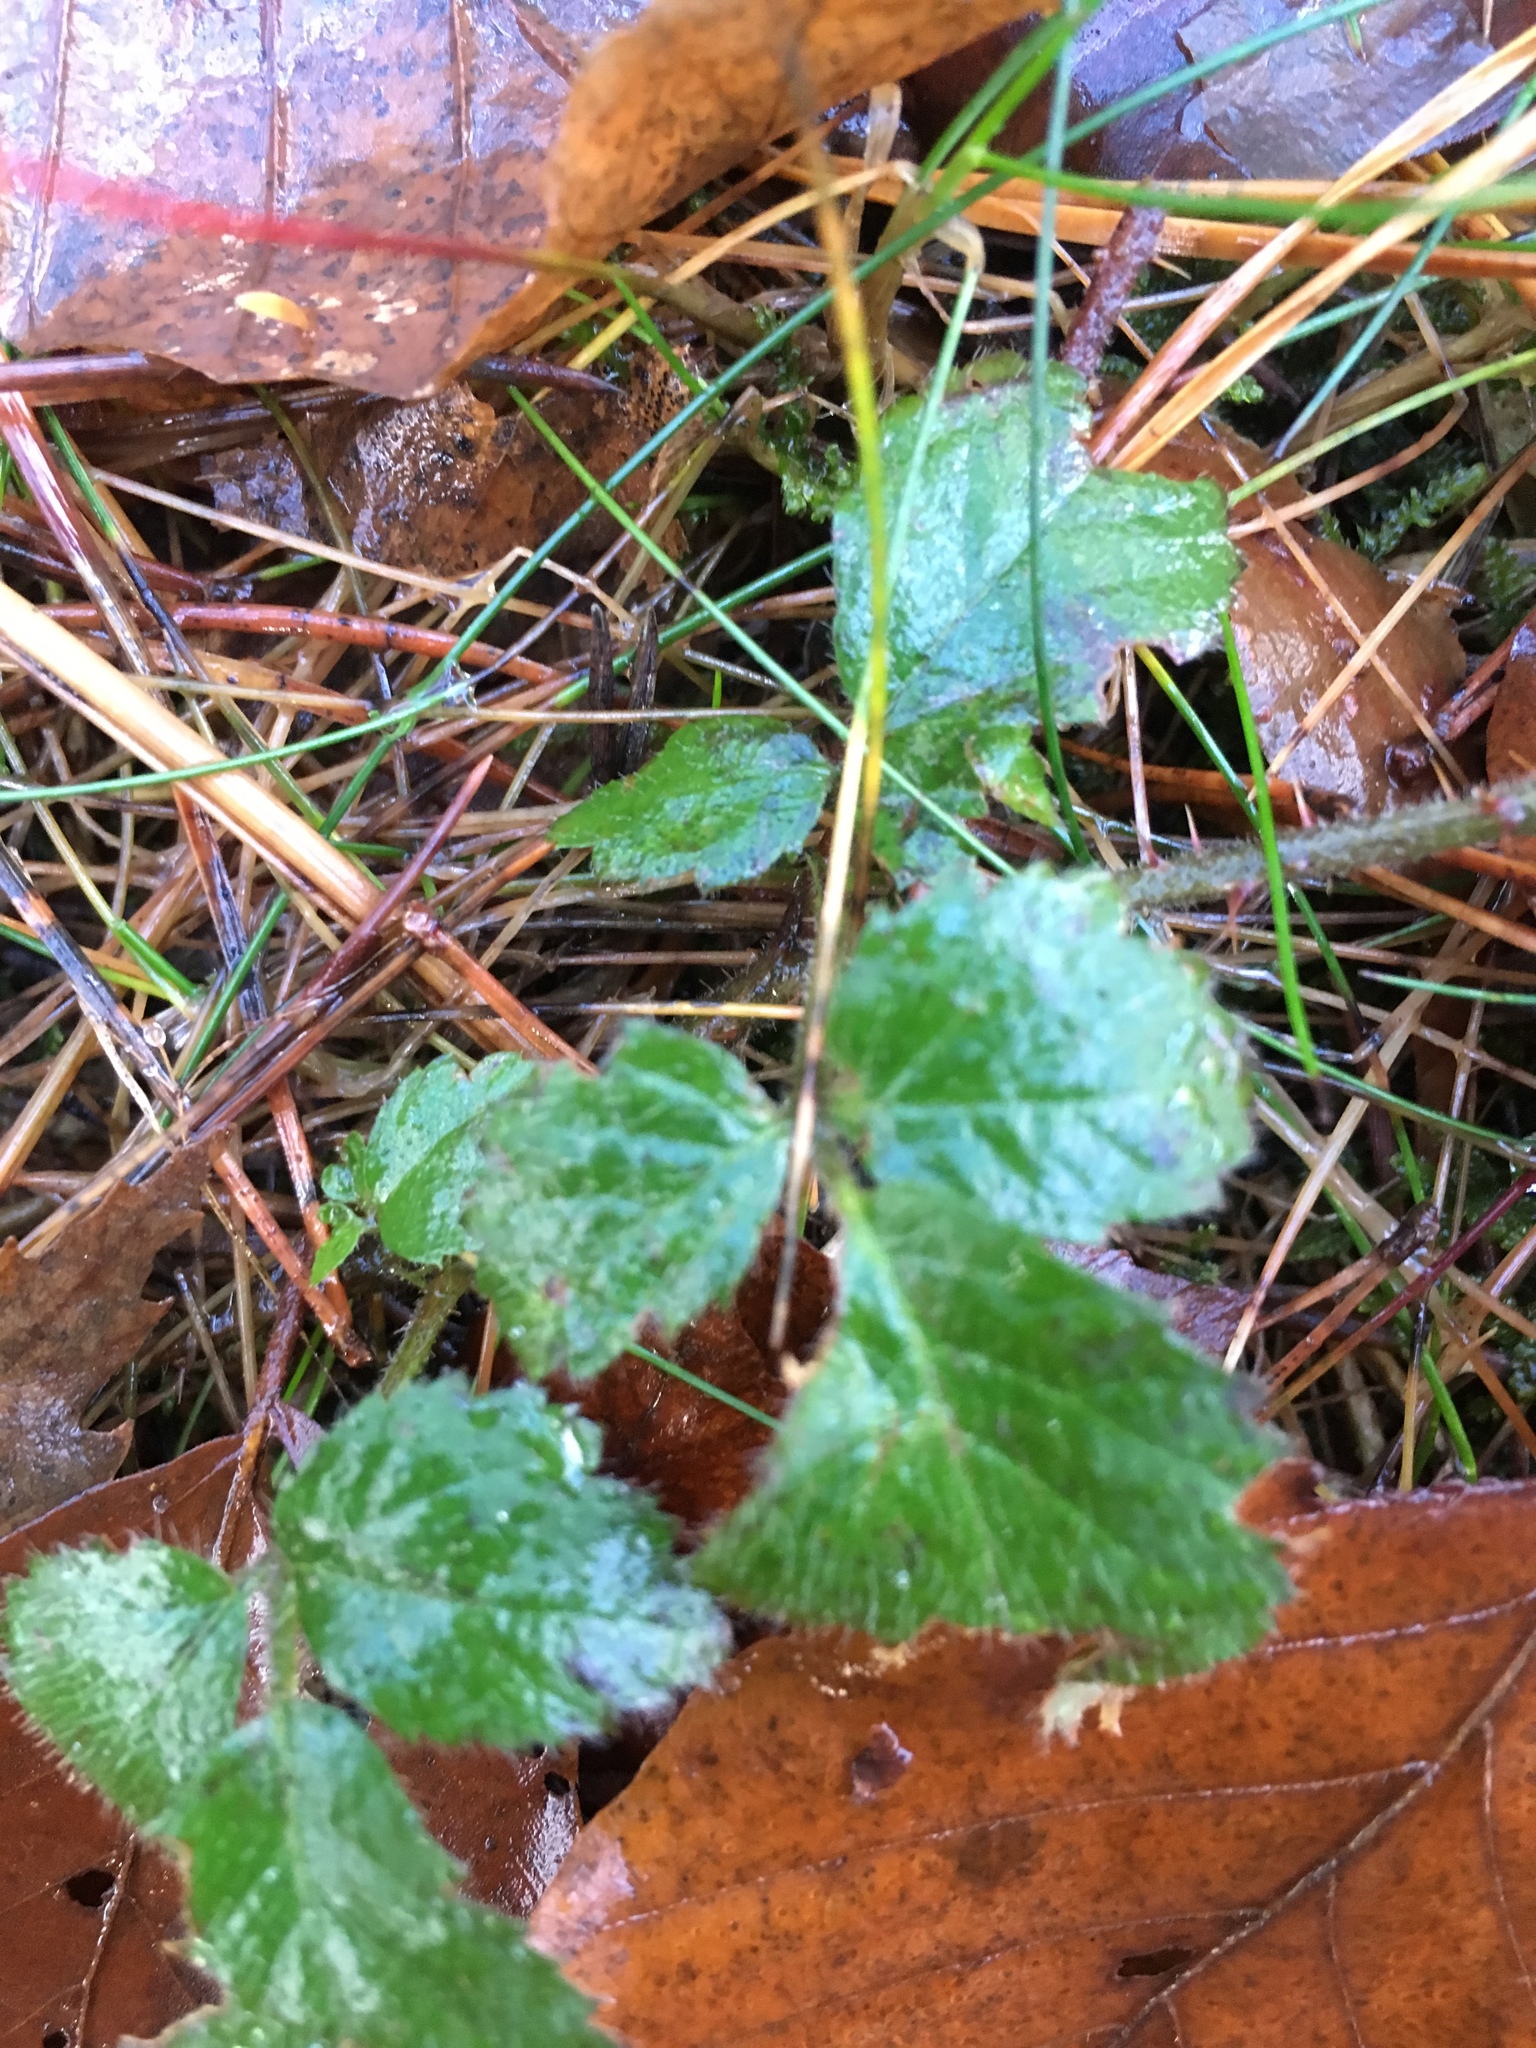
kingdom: Plantae
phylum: Tracheophyta
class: Magnoliopsida
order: Rosales
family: Rosaceae
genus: Geum
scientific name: Geum urbanum
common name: Wood avens
